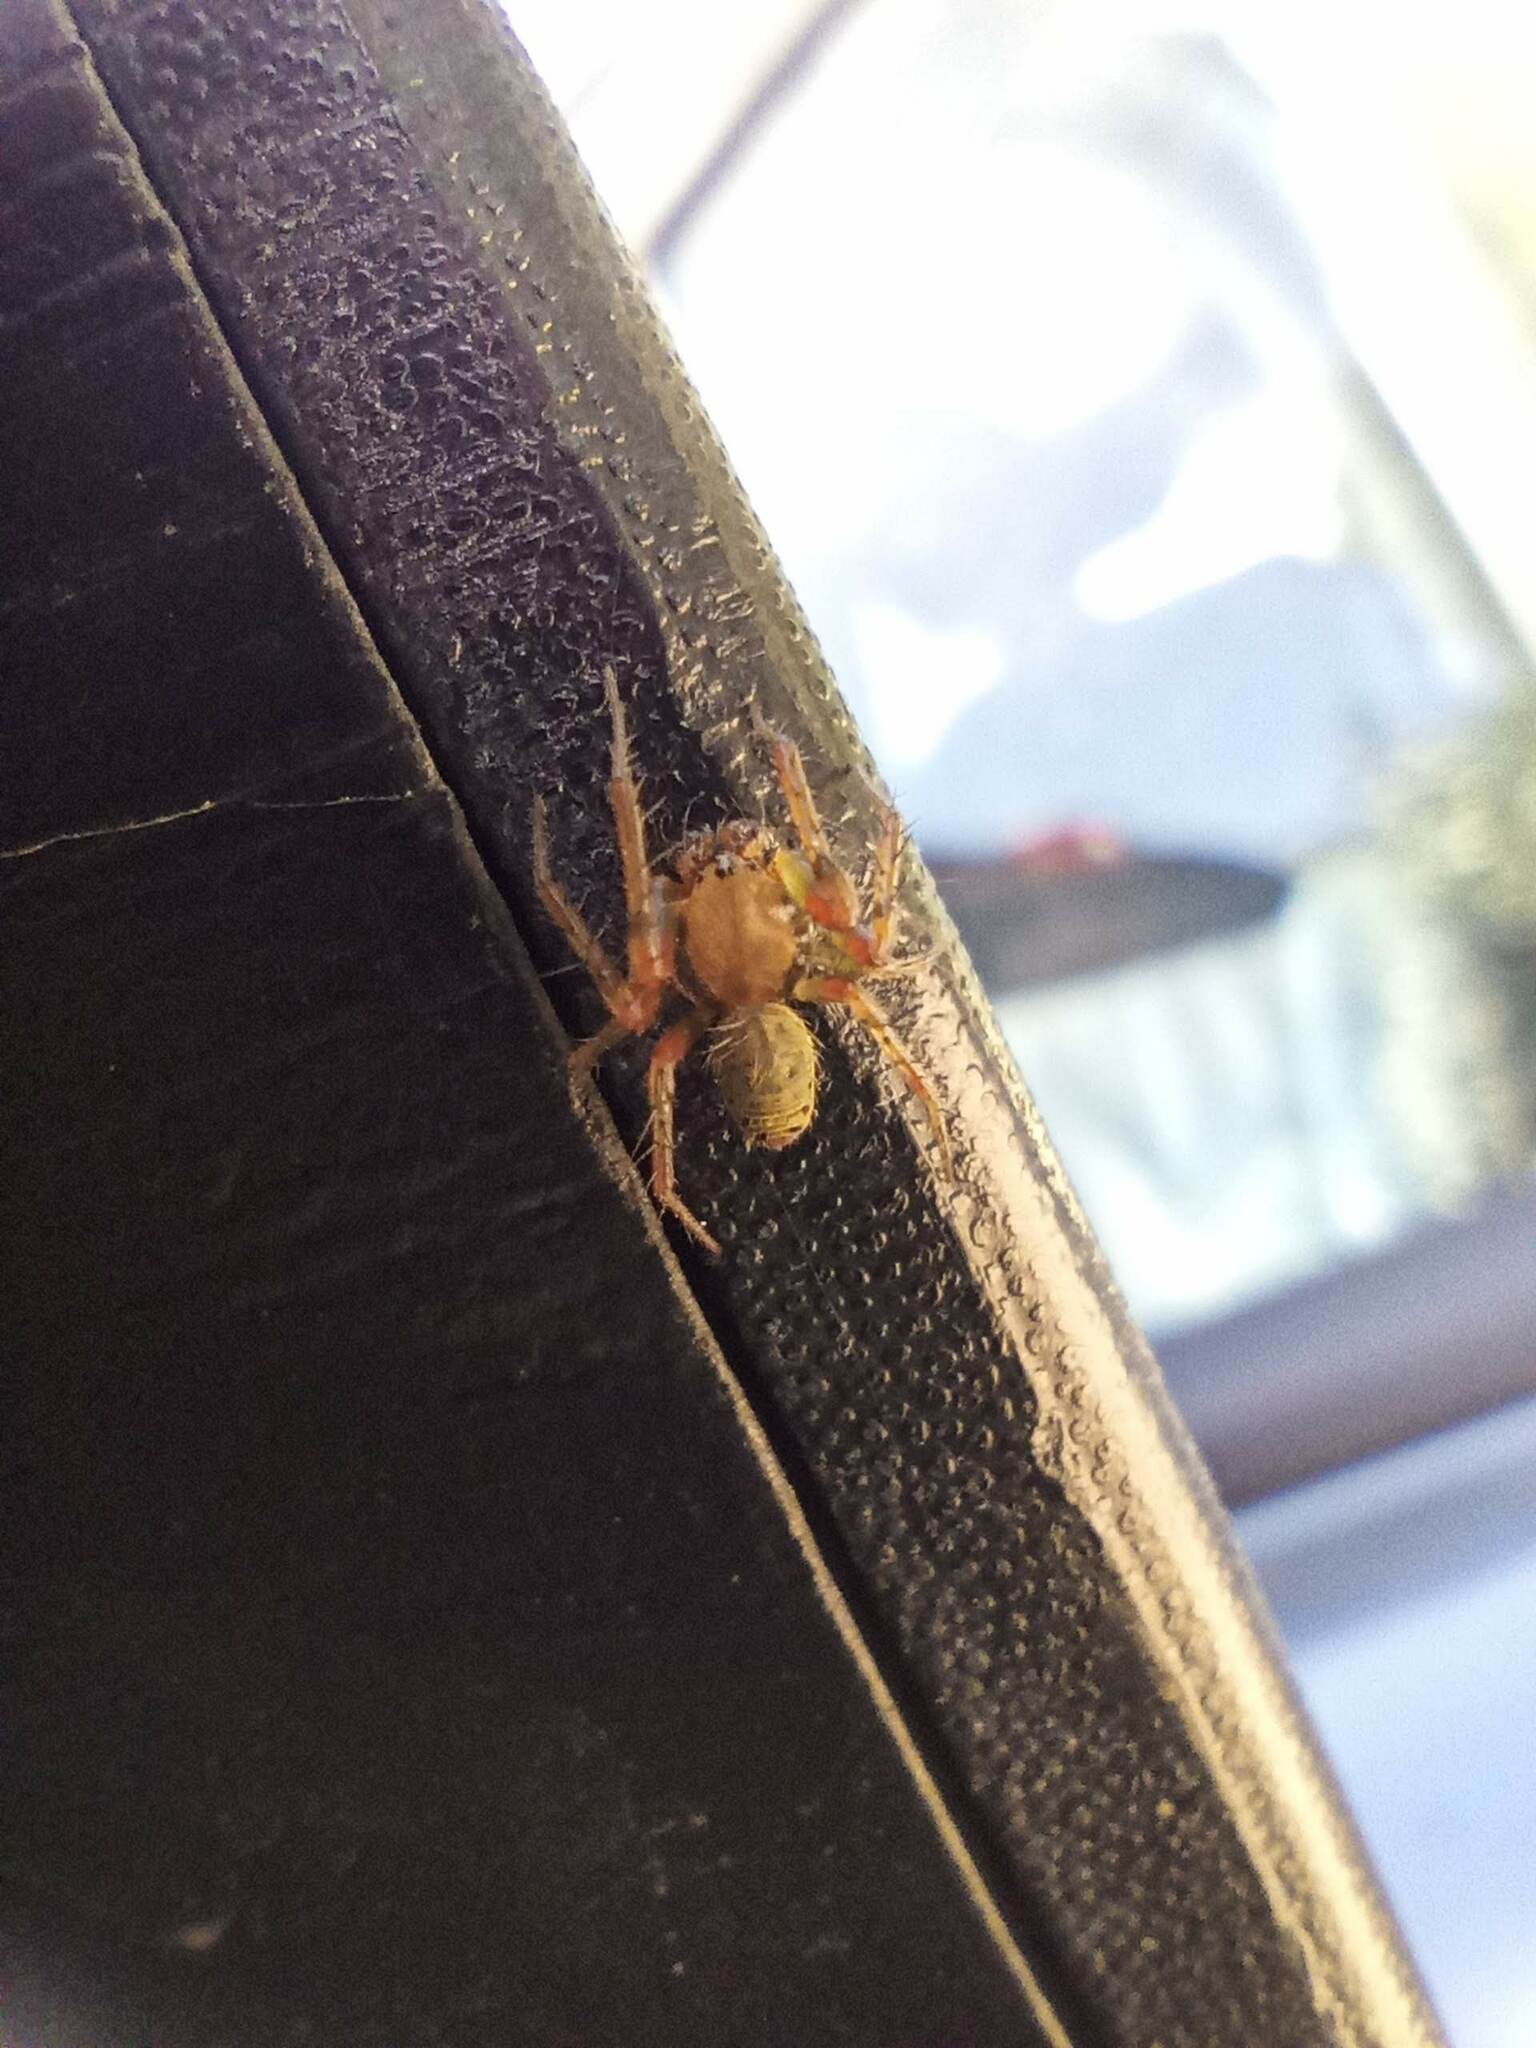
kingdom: Animalia
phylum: Arthropoda
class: Arachnida
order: Araneae
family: Araneidae
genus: Araniella
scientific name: Araniella
